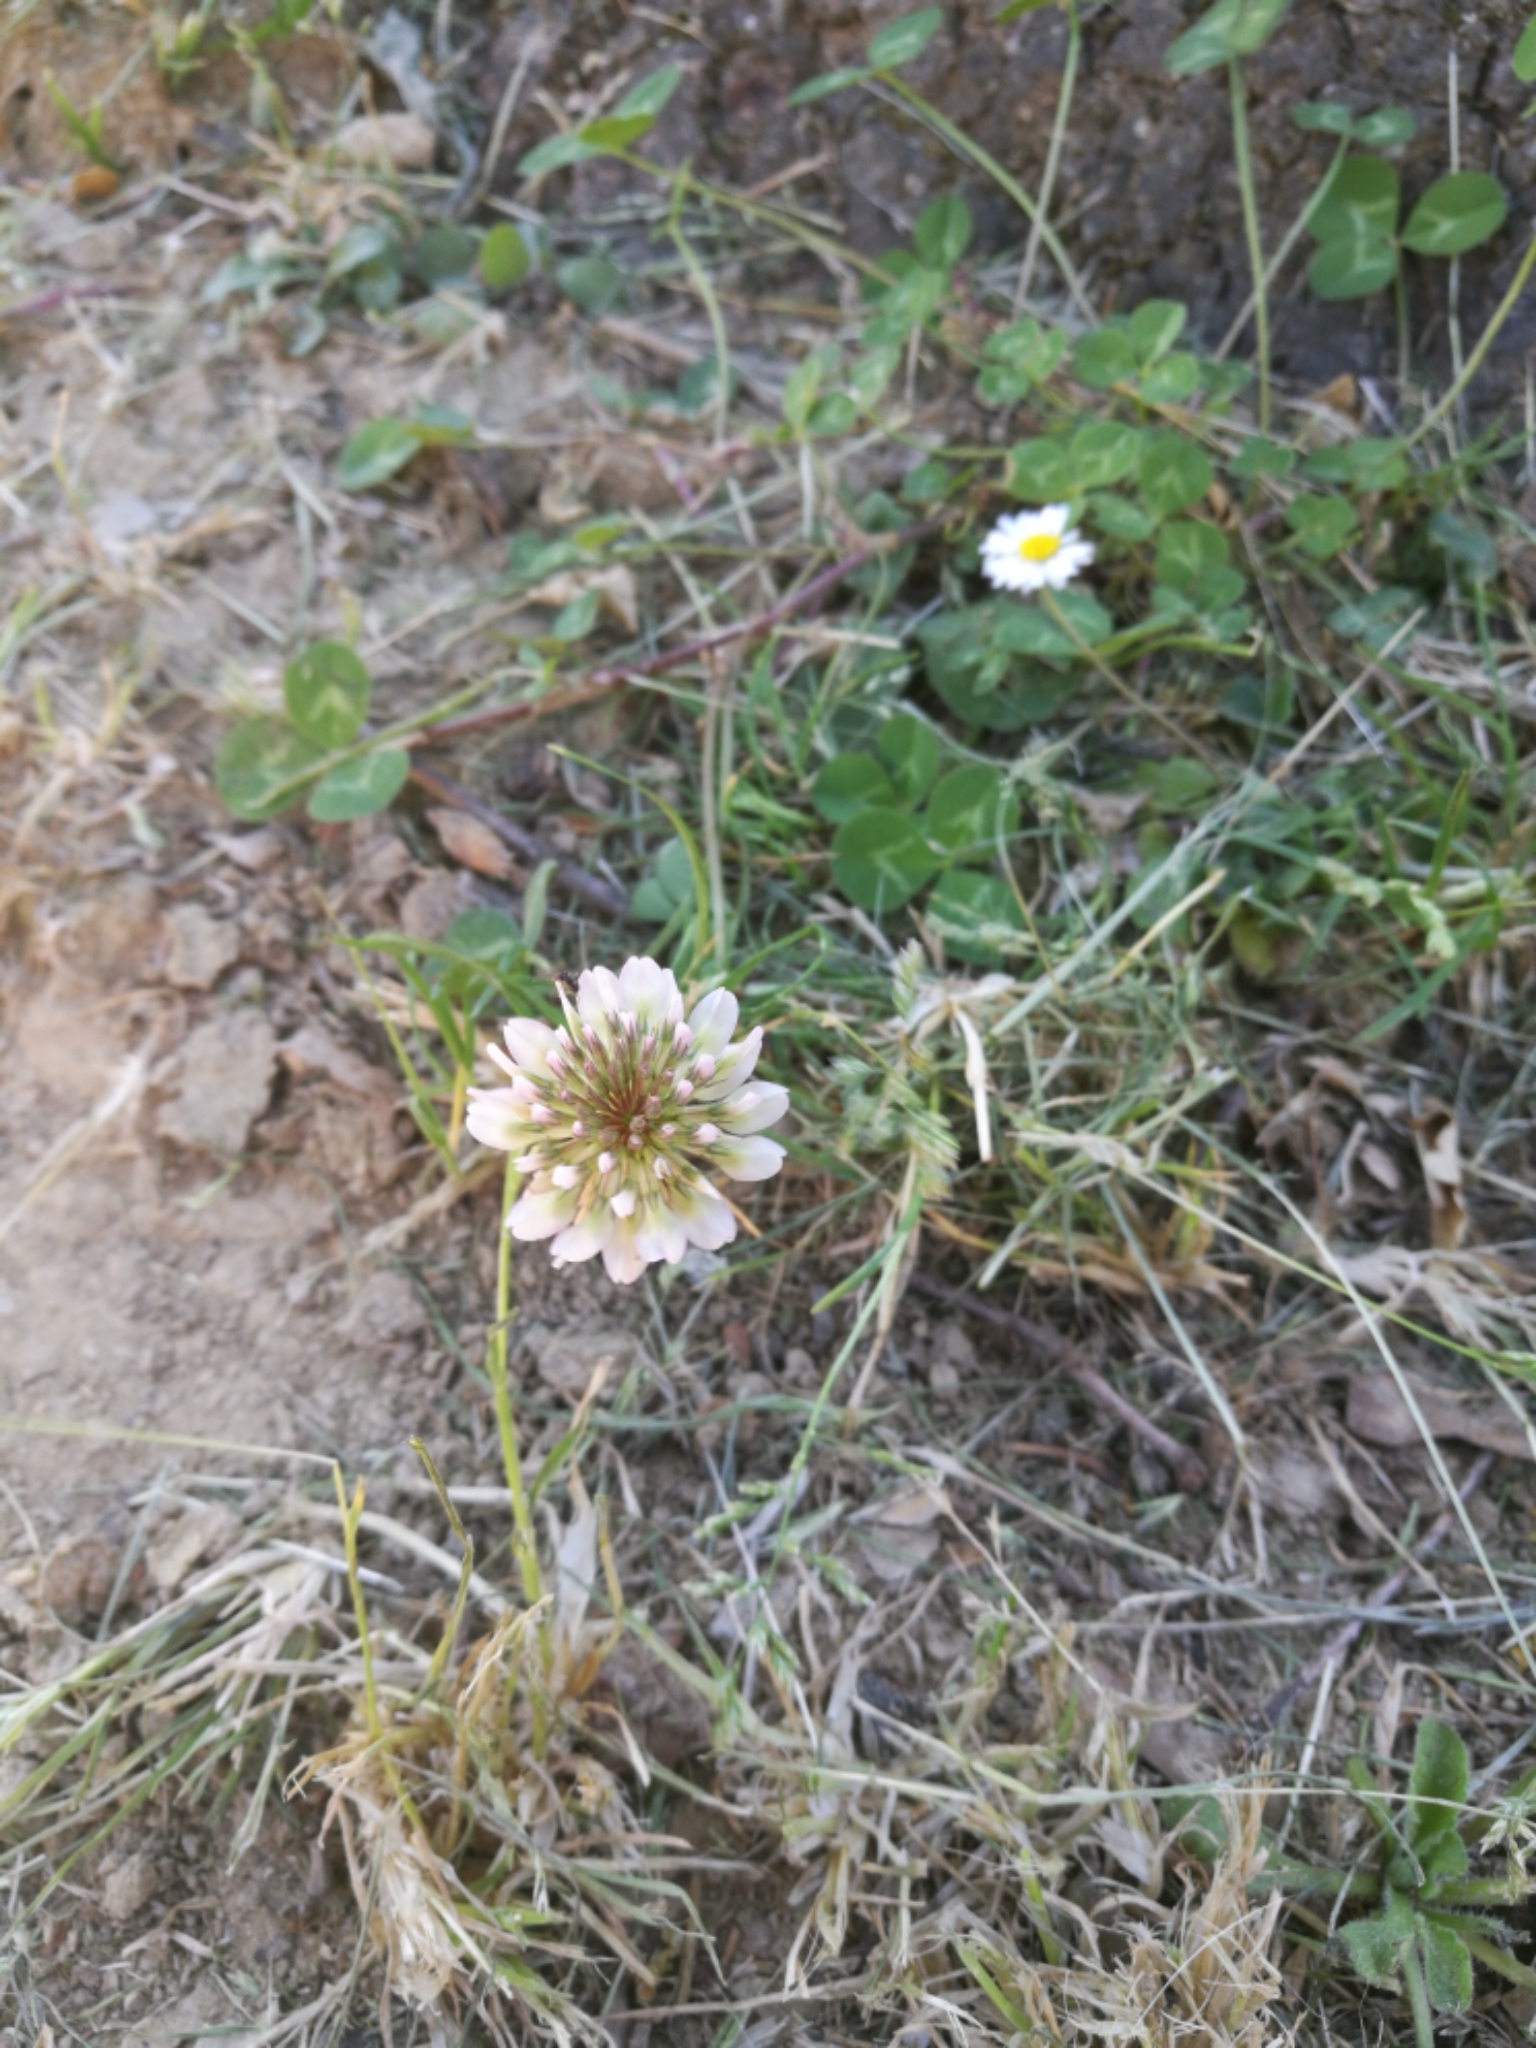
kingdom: Plantae
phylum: Tracheophyta
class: Magnoliopsida
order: Fabales
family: Fabaceae
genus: Trifolium
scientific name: Trifolium repens
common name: White clover
